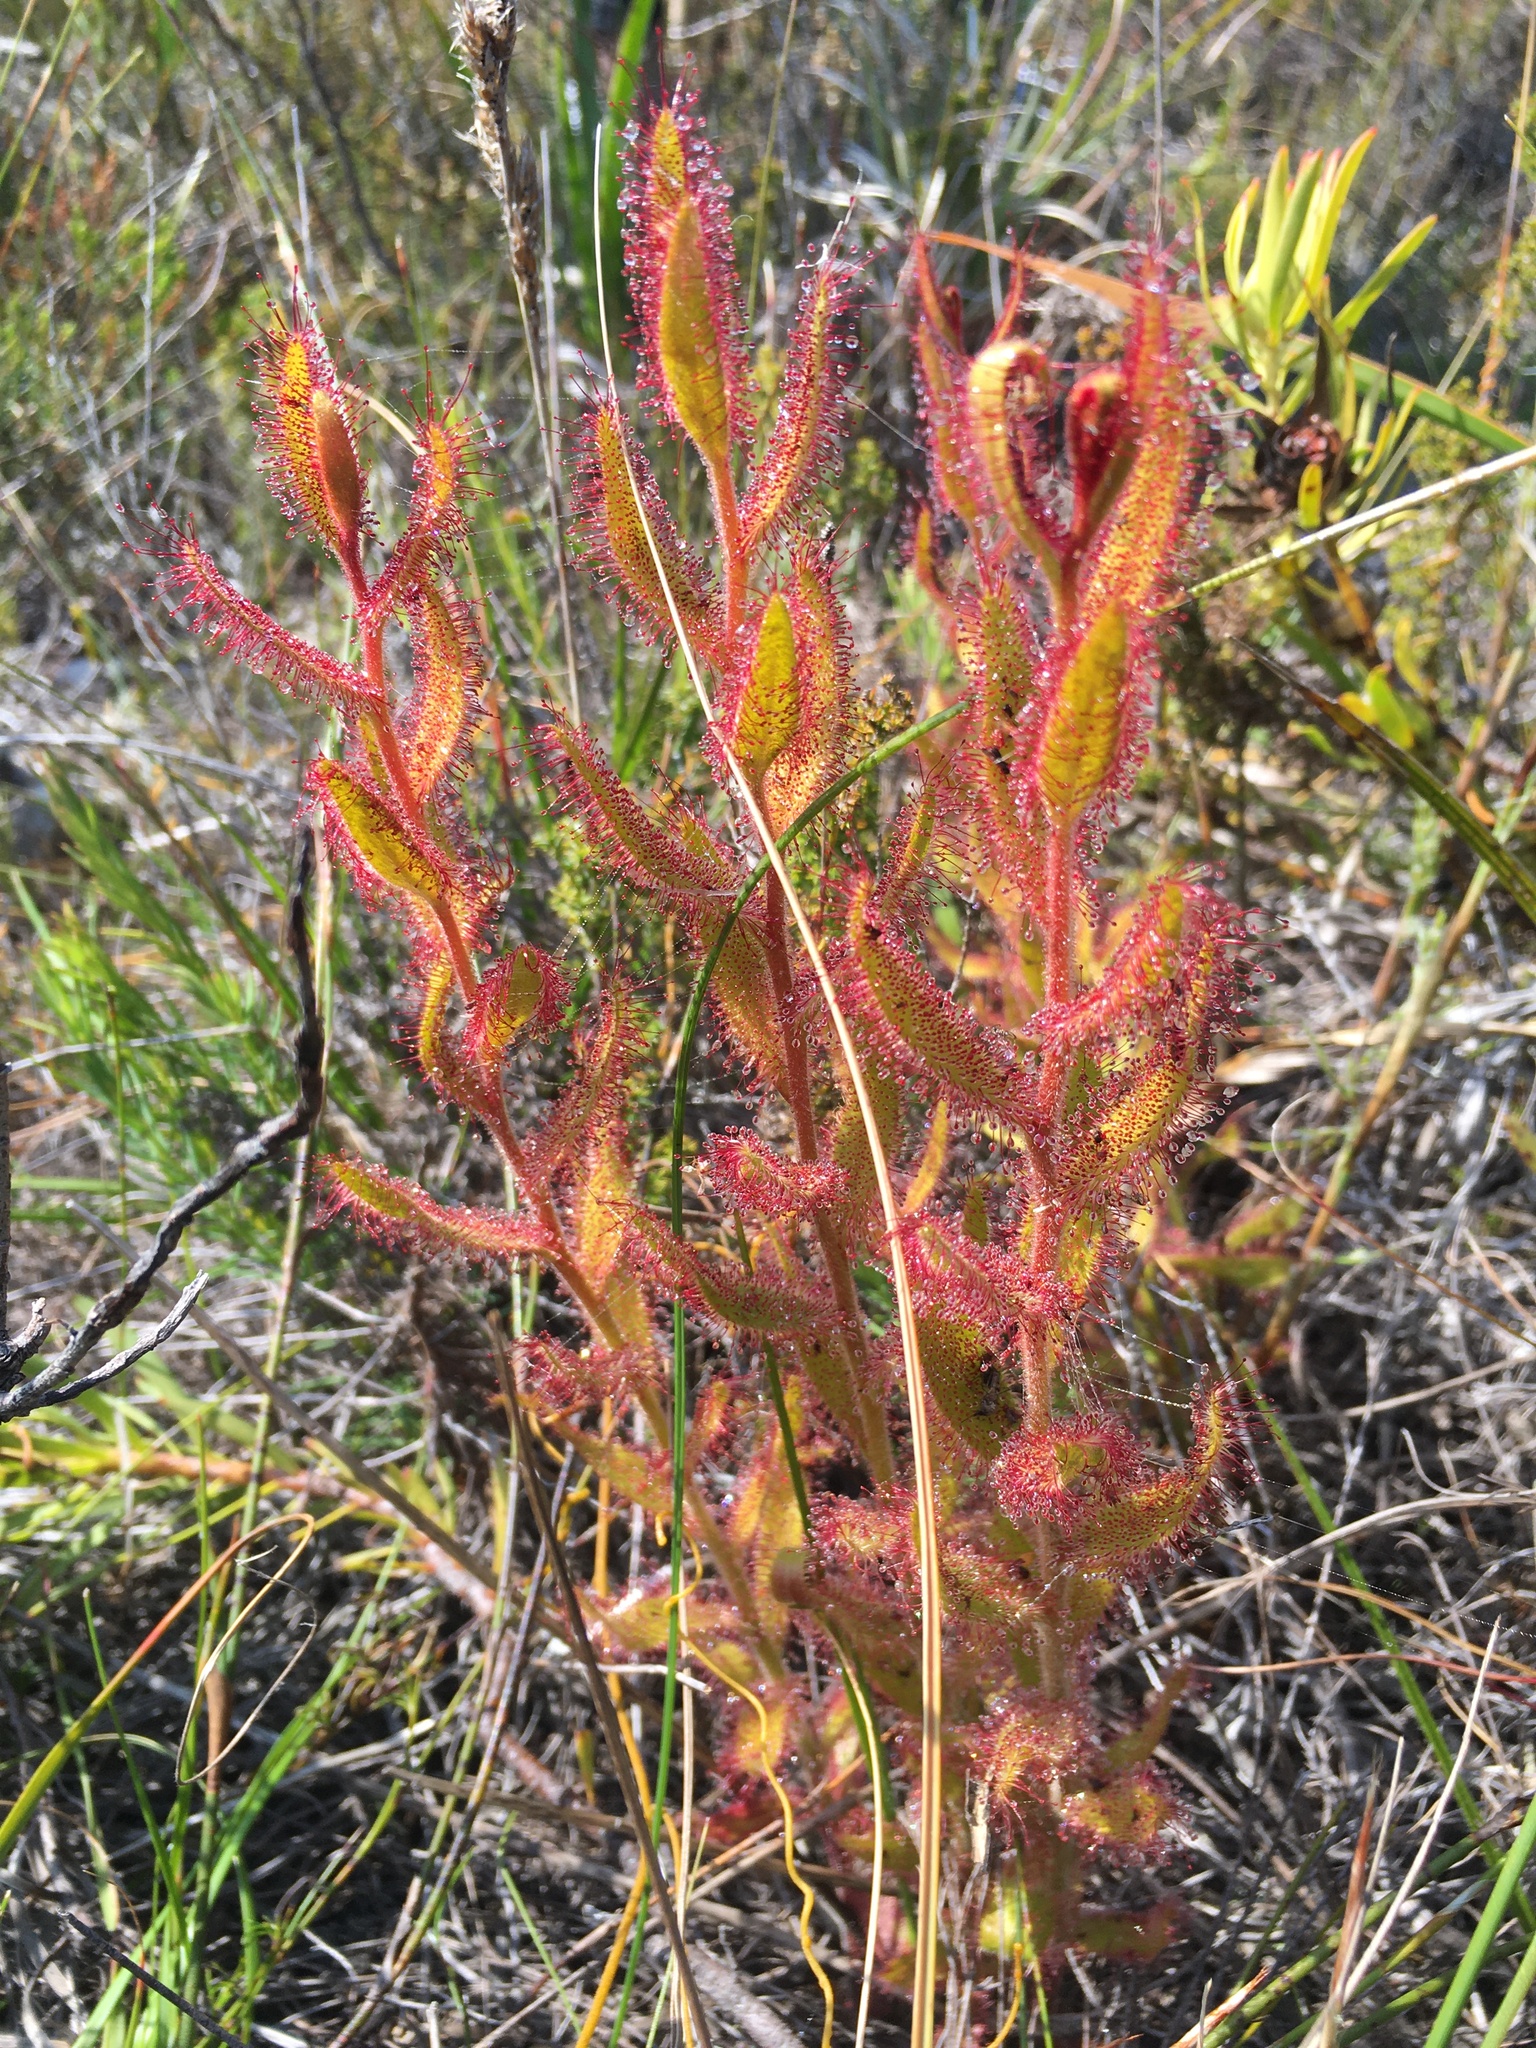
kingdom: Plantae
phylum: Tracheophyta
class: Magnoliopsida
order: Caryophyllales
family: Droseraceae
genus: Drosera
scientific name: Drosera cistiflora
